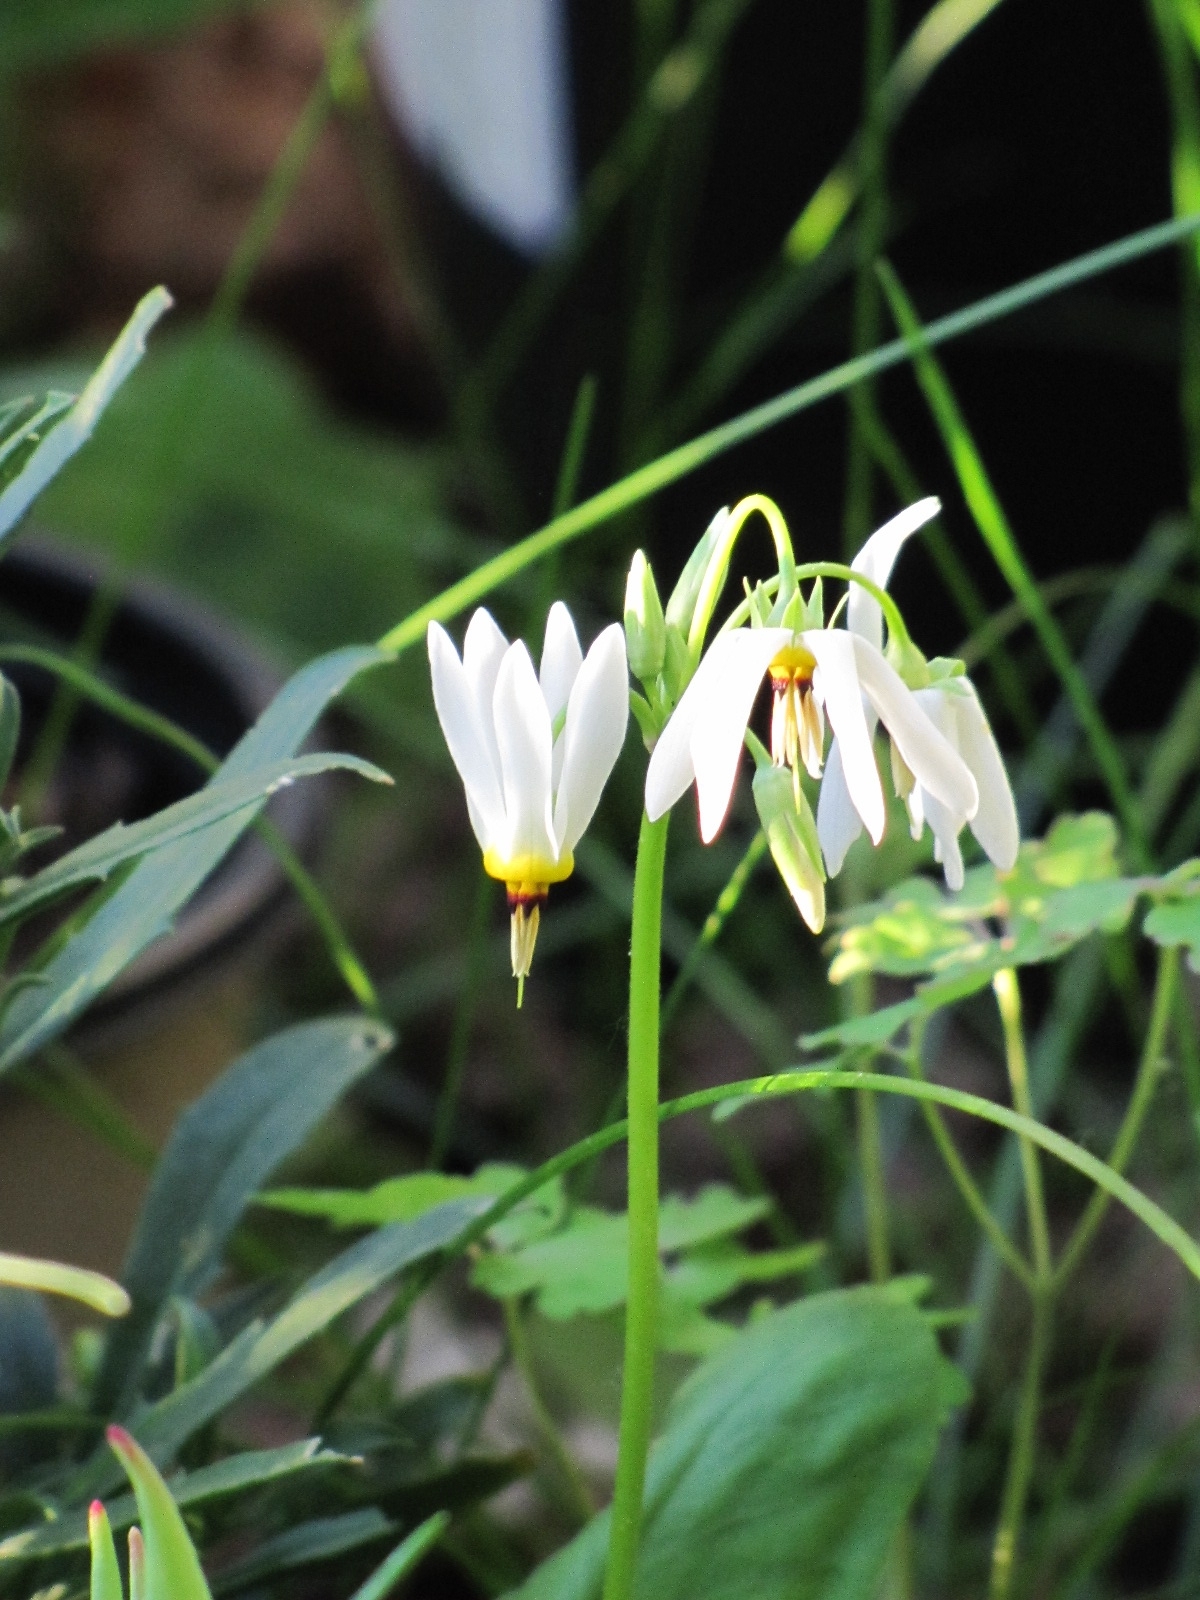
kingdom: Plantae
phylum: Tracheophyta
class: Magnoliopsida
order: Ericales
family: Primulaceae
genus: Dodecatheon
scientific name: Dodecatheon meadia
